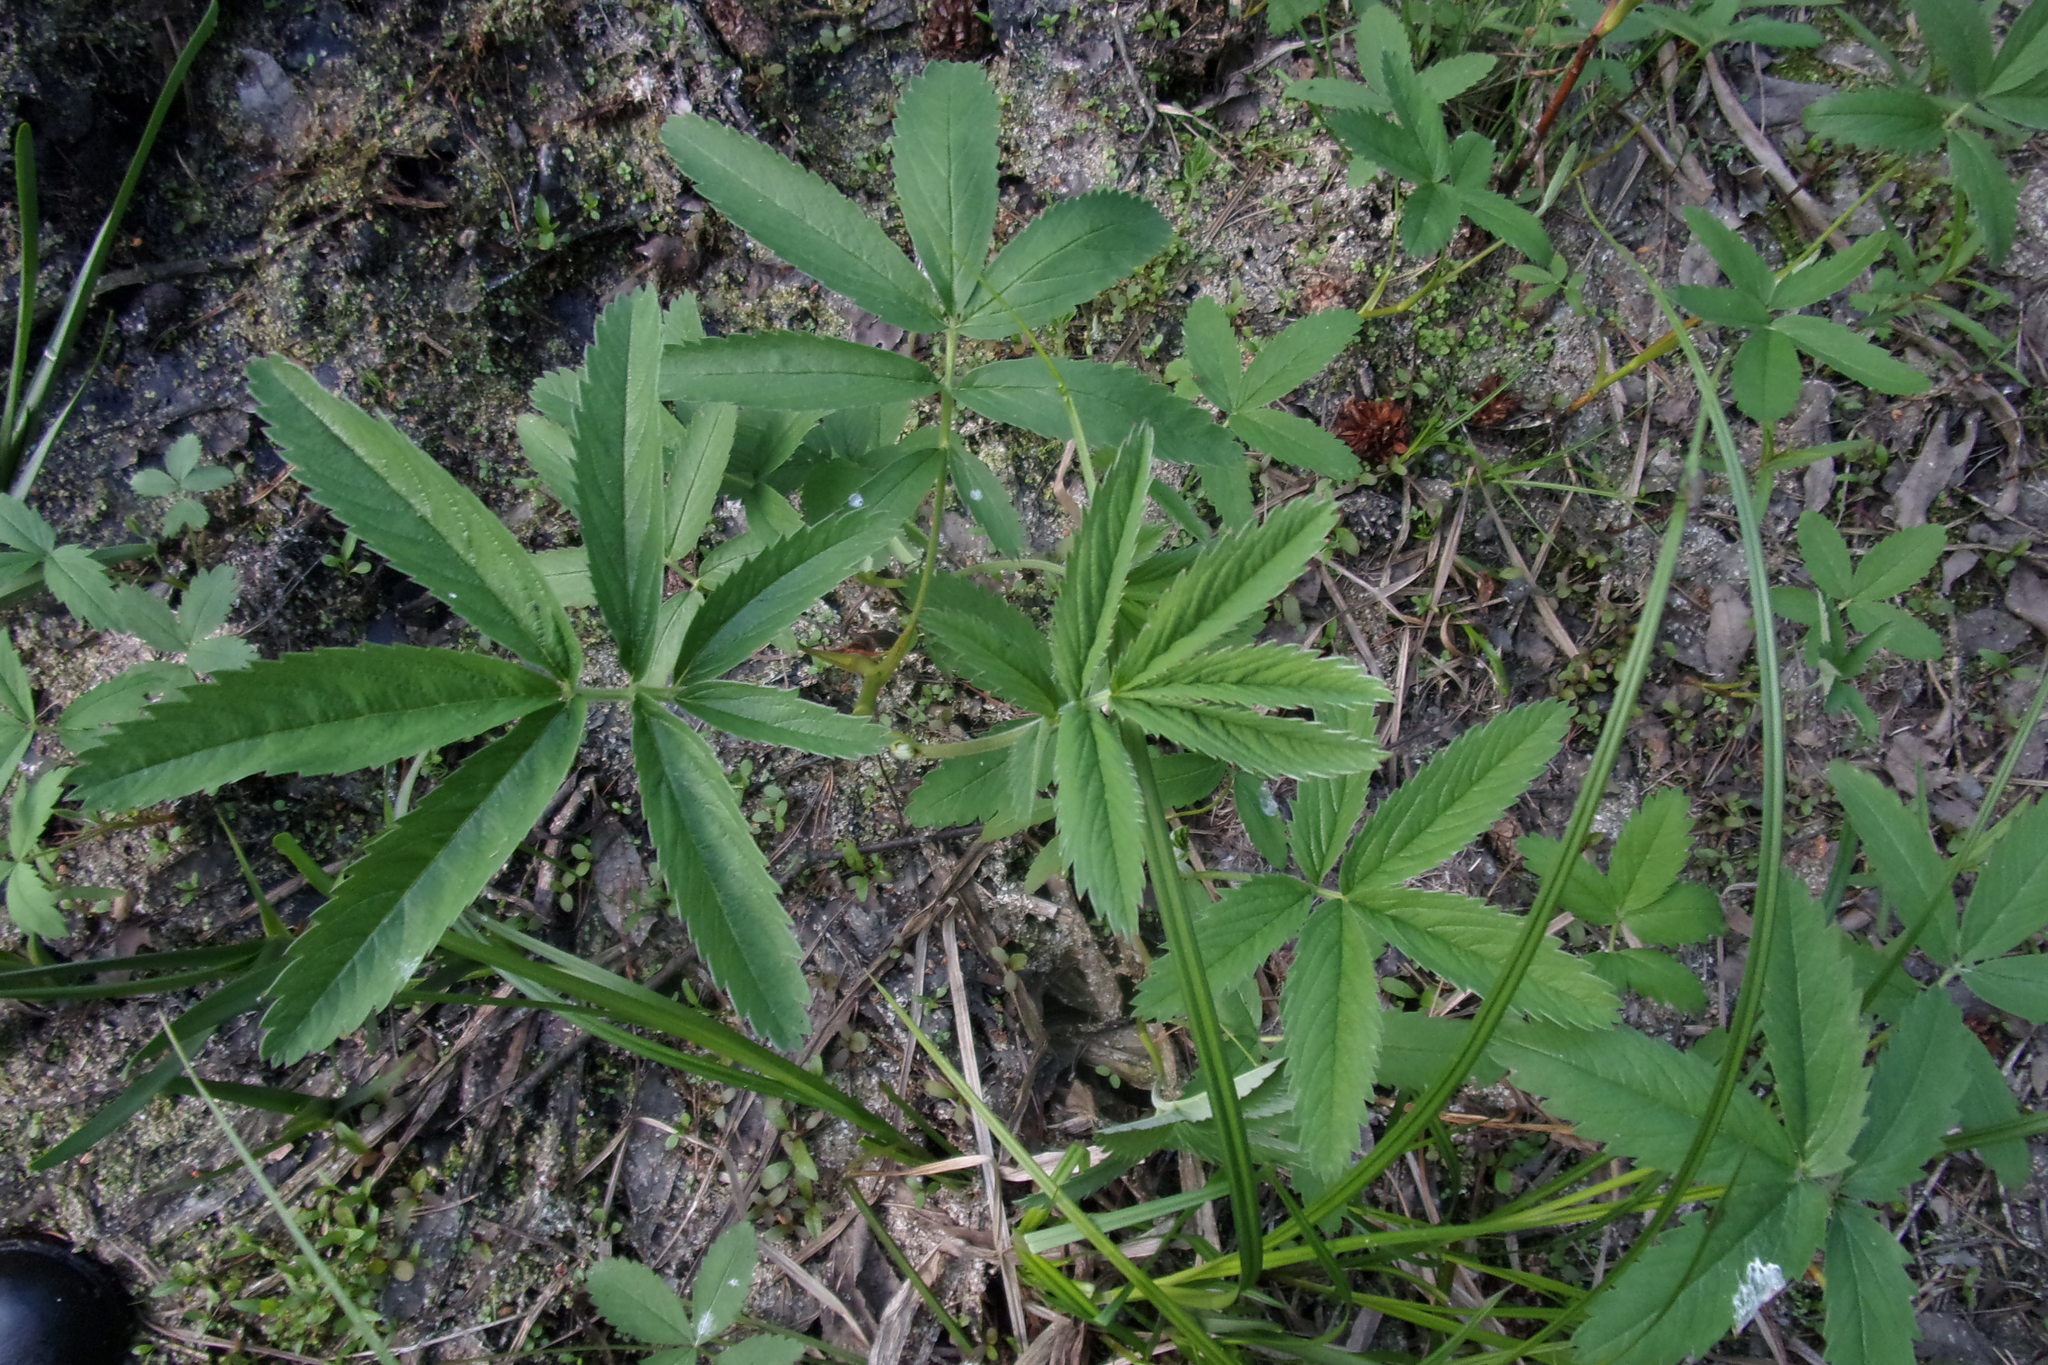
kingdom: Plantae
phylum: Tracheophyta
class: Magnoliopsida
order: Rosales
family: Rosaceae
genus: Comarum
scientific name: Comarum palustre
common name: Marsh cinquefoil
